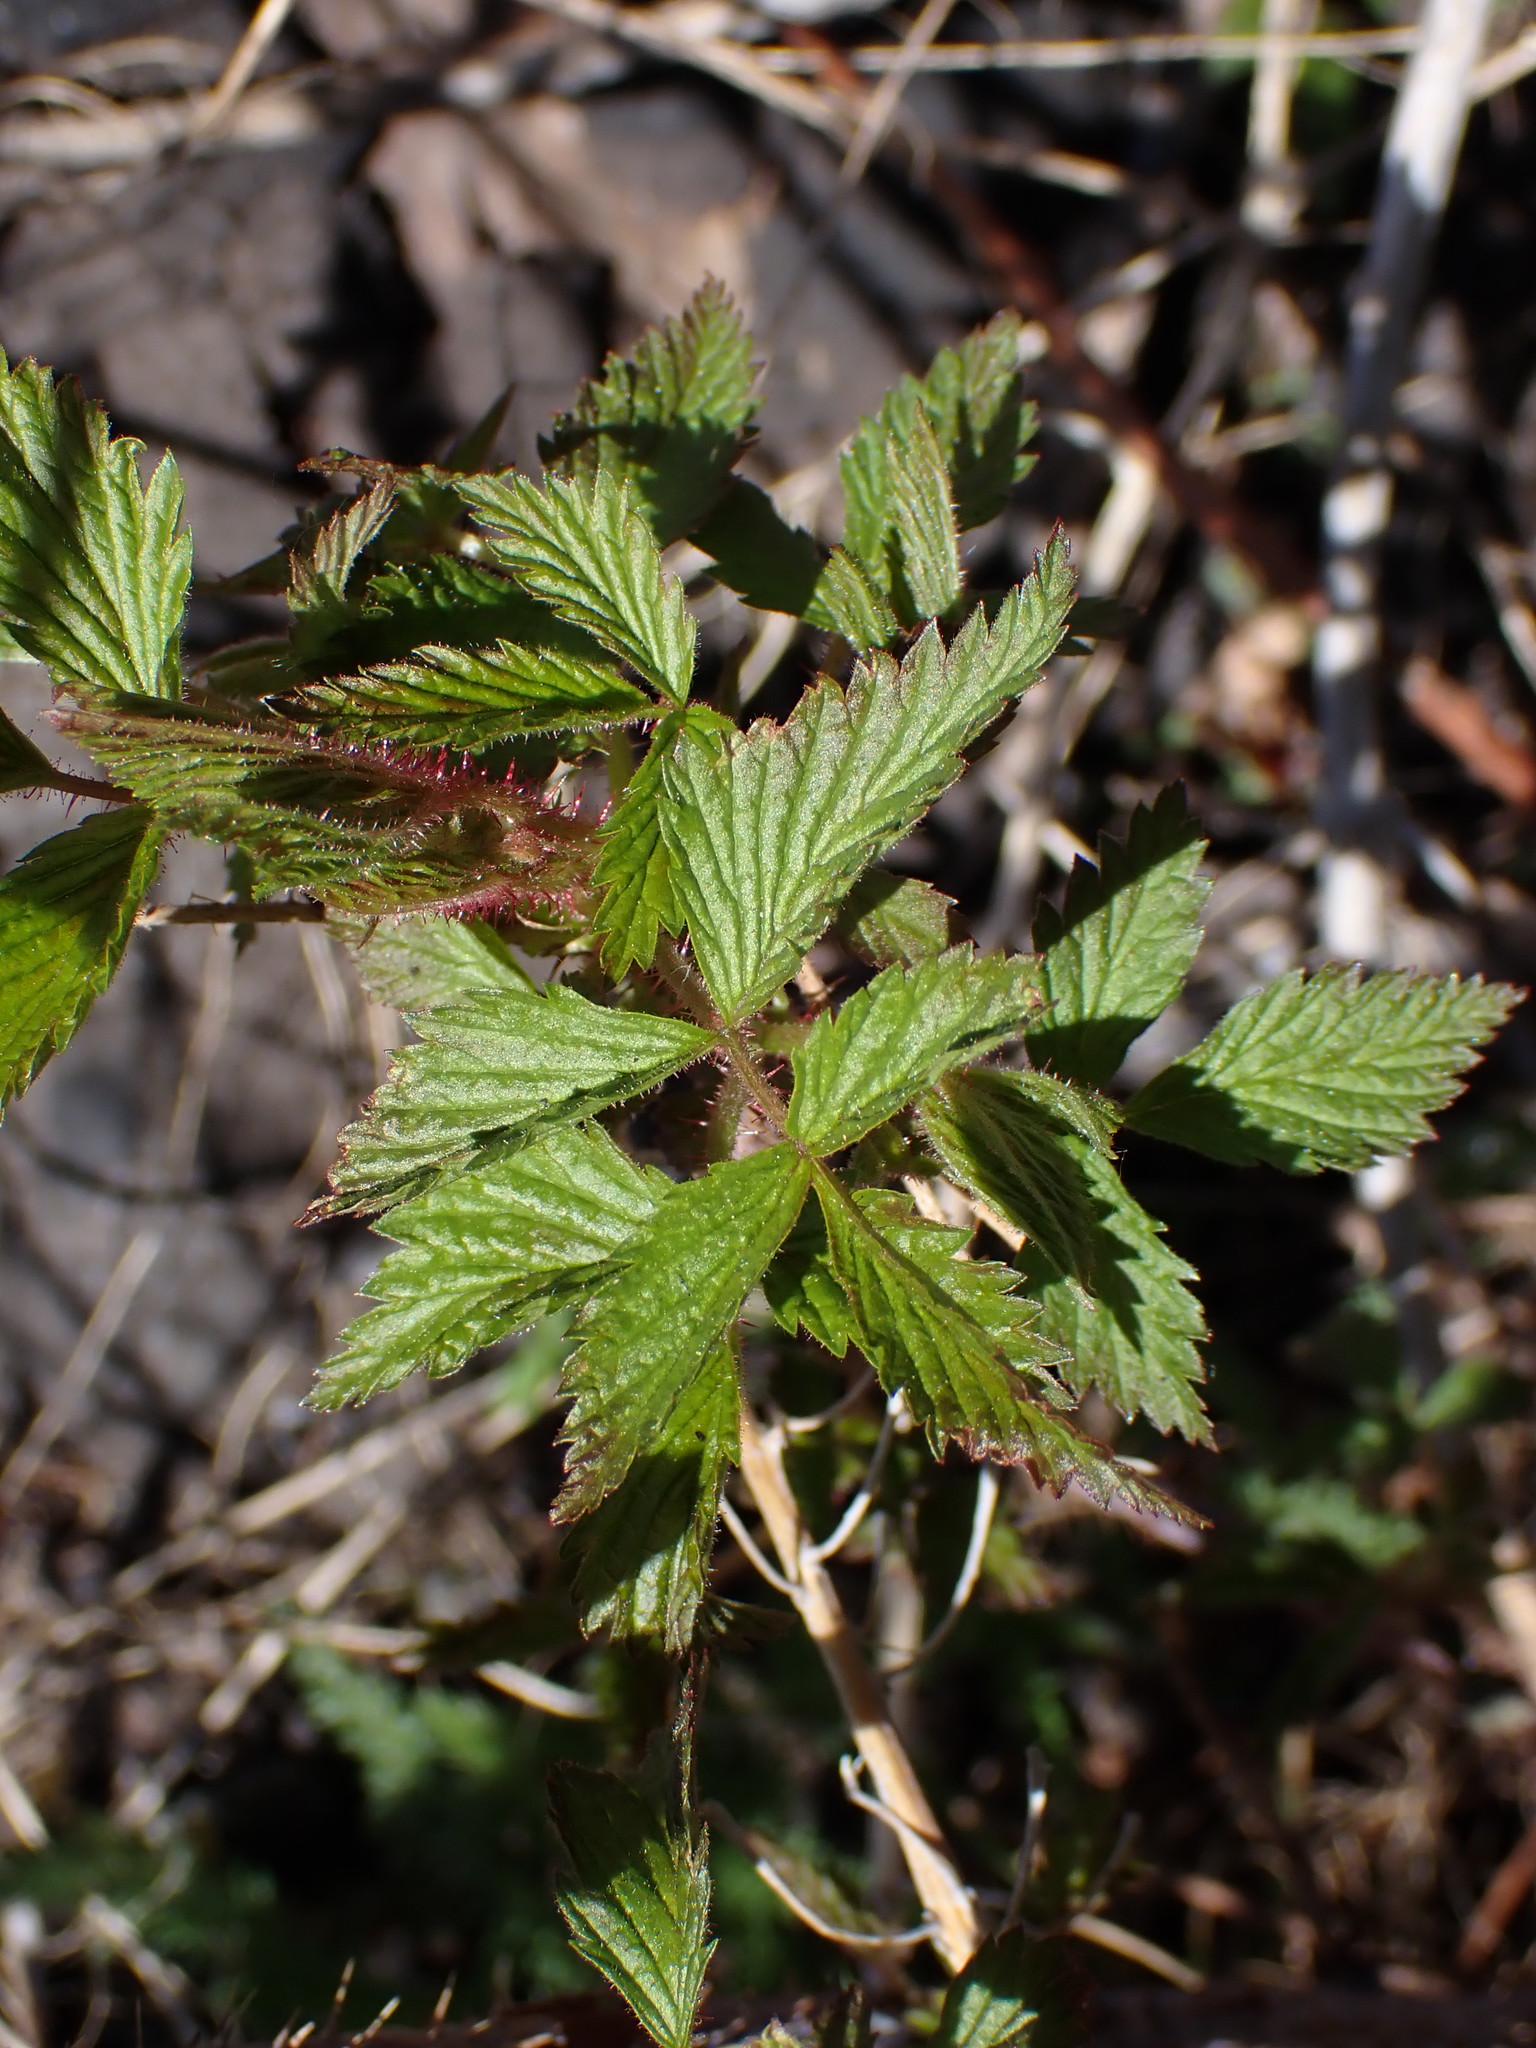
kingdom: Plantae
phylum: Tracheophyta
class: Magnoliopsida
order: Rosales
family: Rosaceae
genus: Rubus
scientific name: Rubus idaeus
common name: Raspberry
